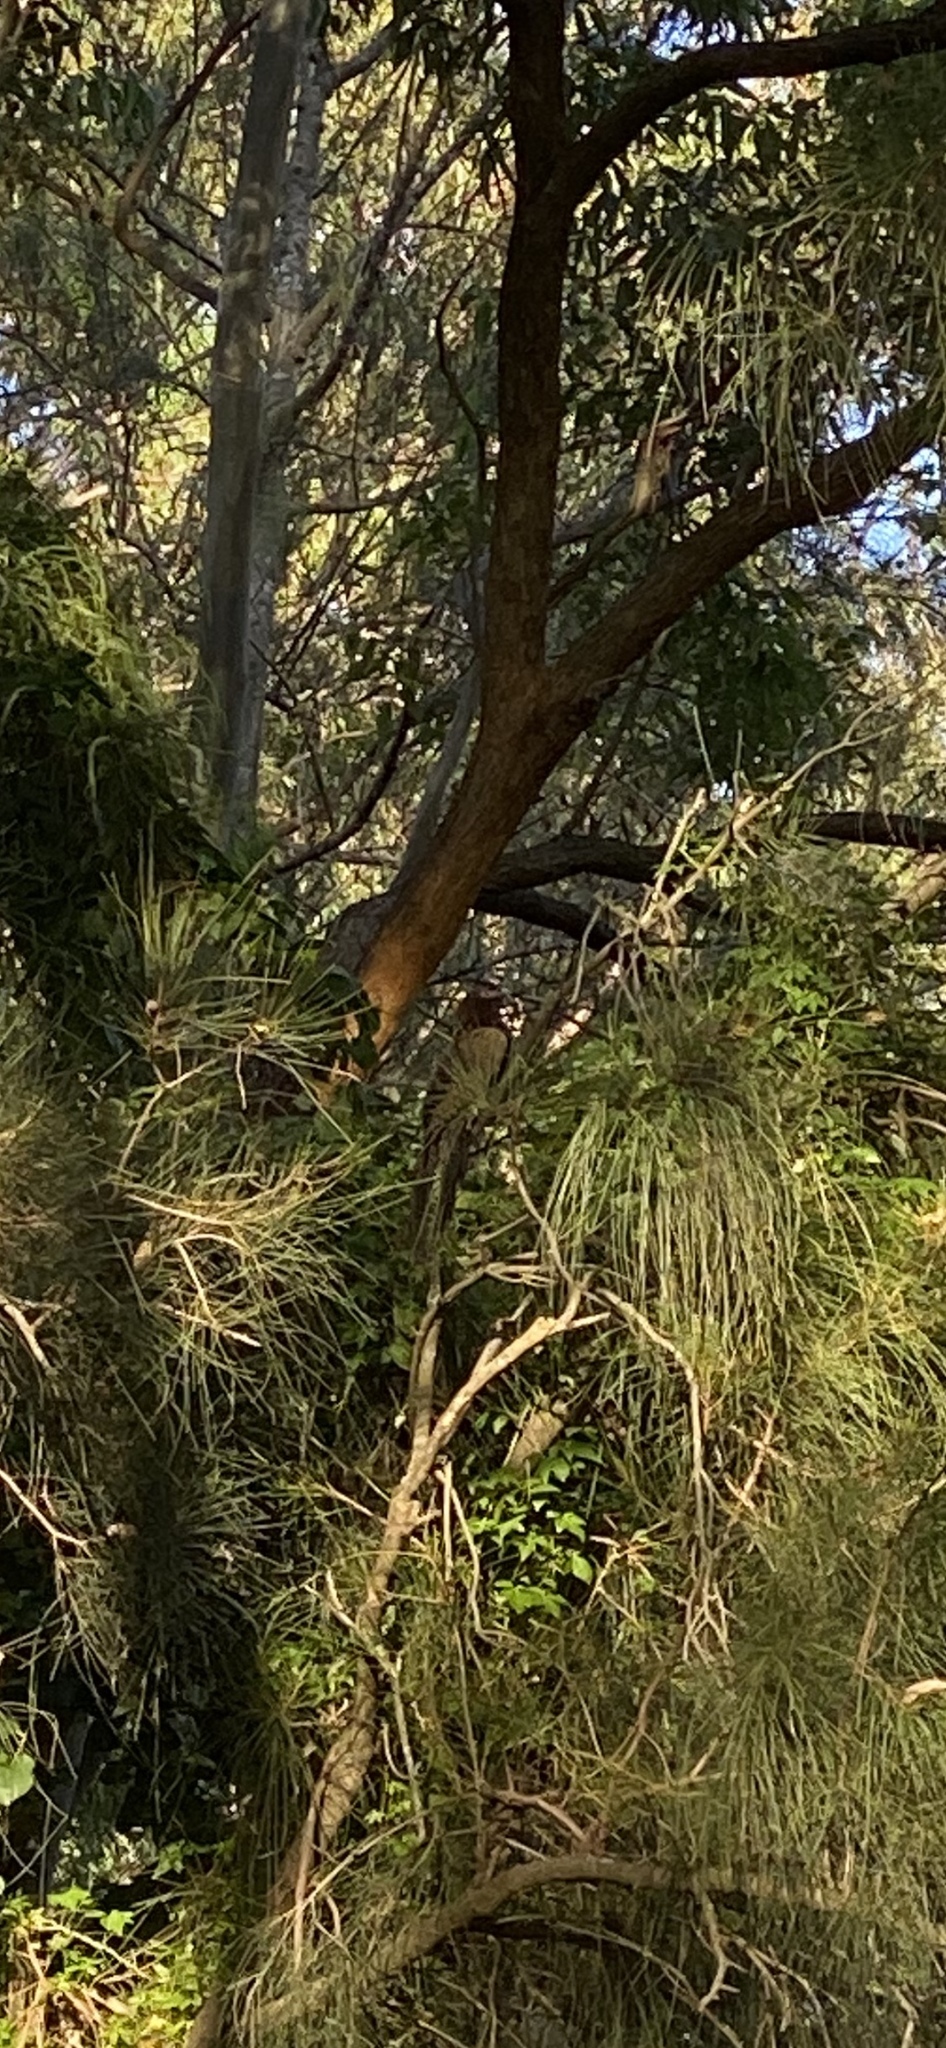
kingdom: Animalia
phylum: Chordata
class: Aves
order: Cuculiformes
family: Cuculidae
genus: Centropus
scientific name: Centropus phasianinus
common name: Pheasant coucal
